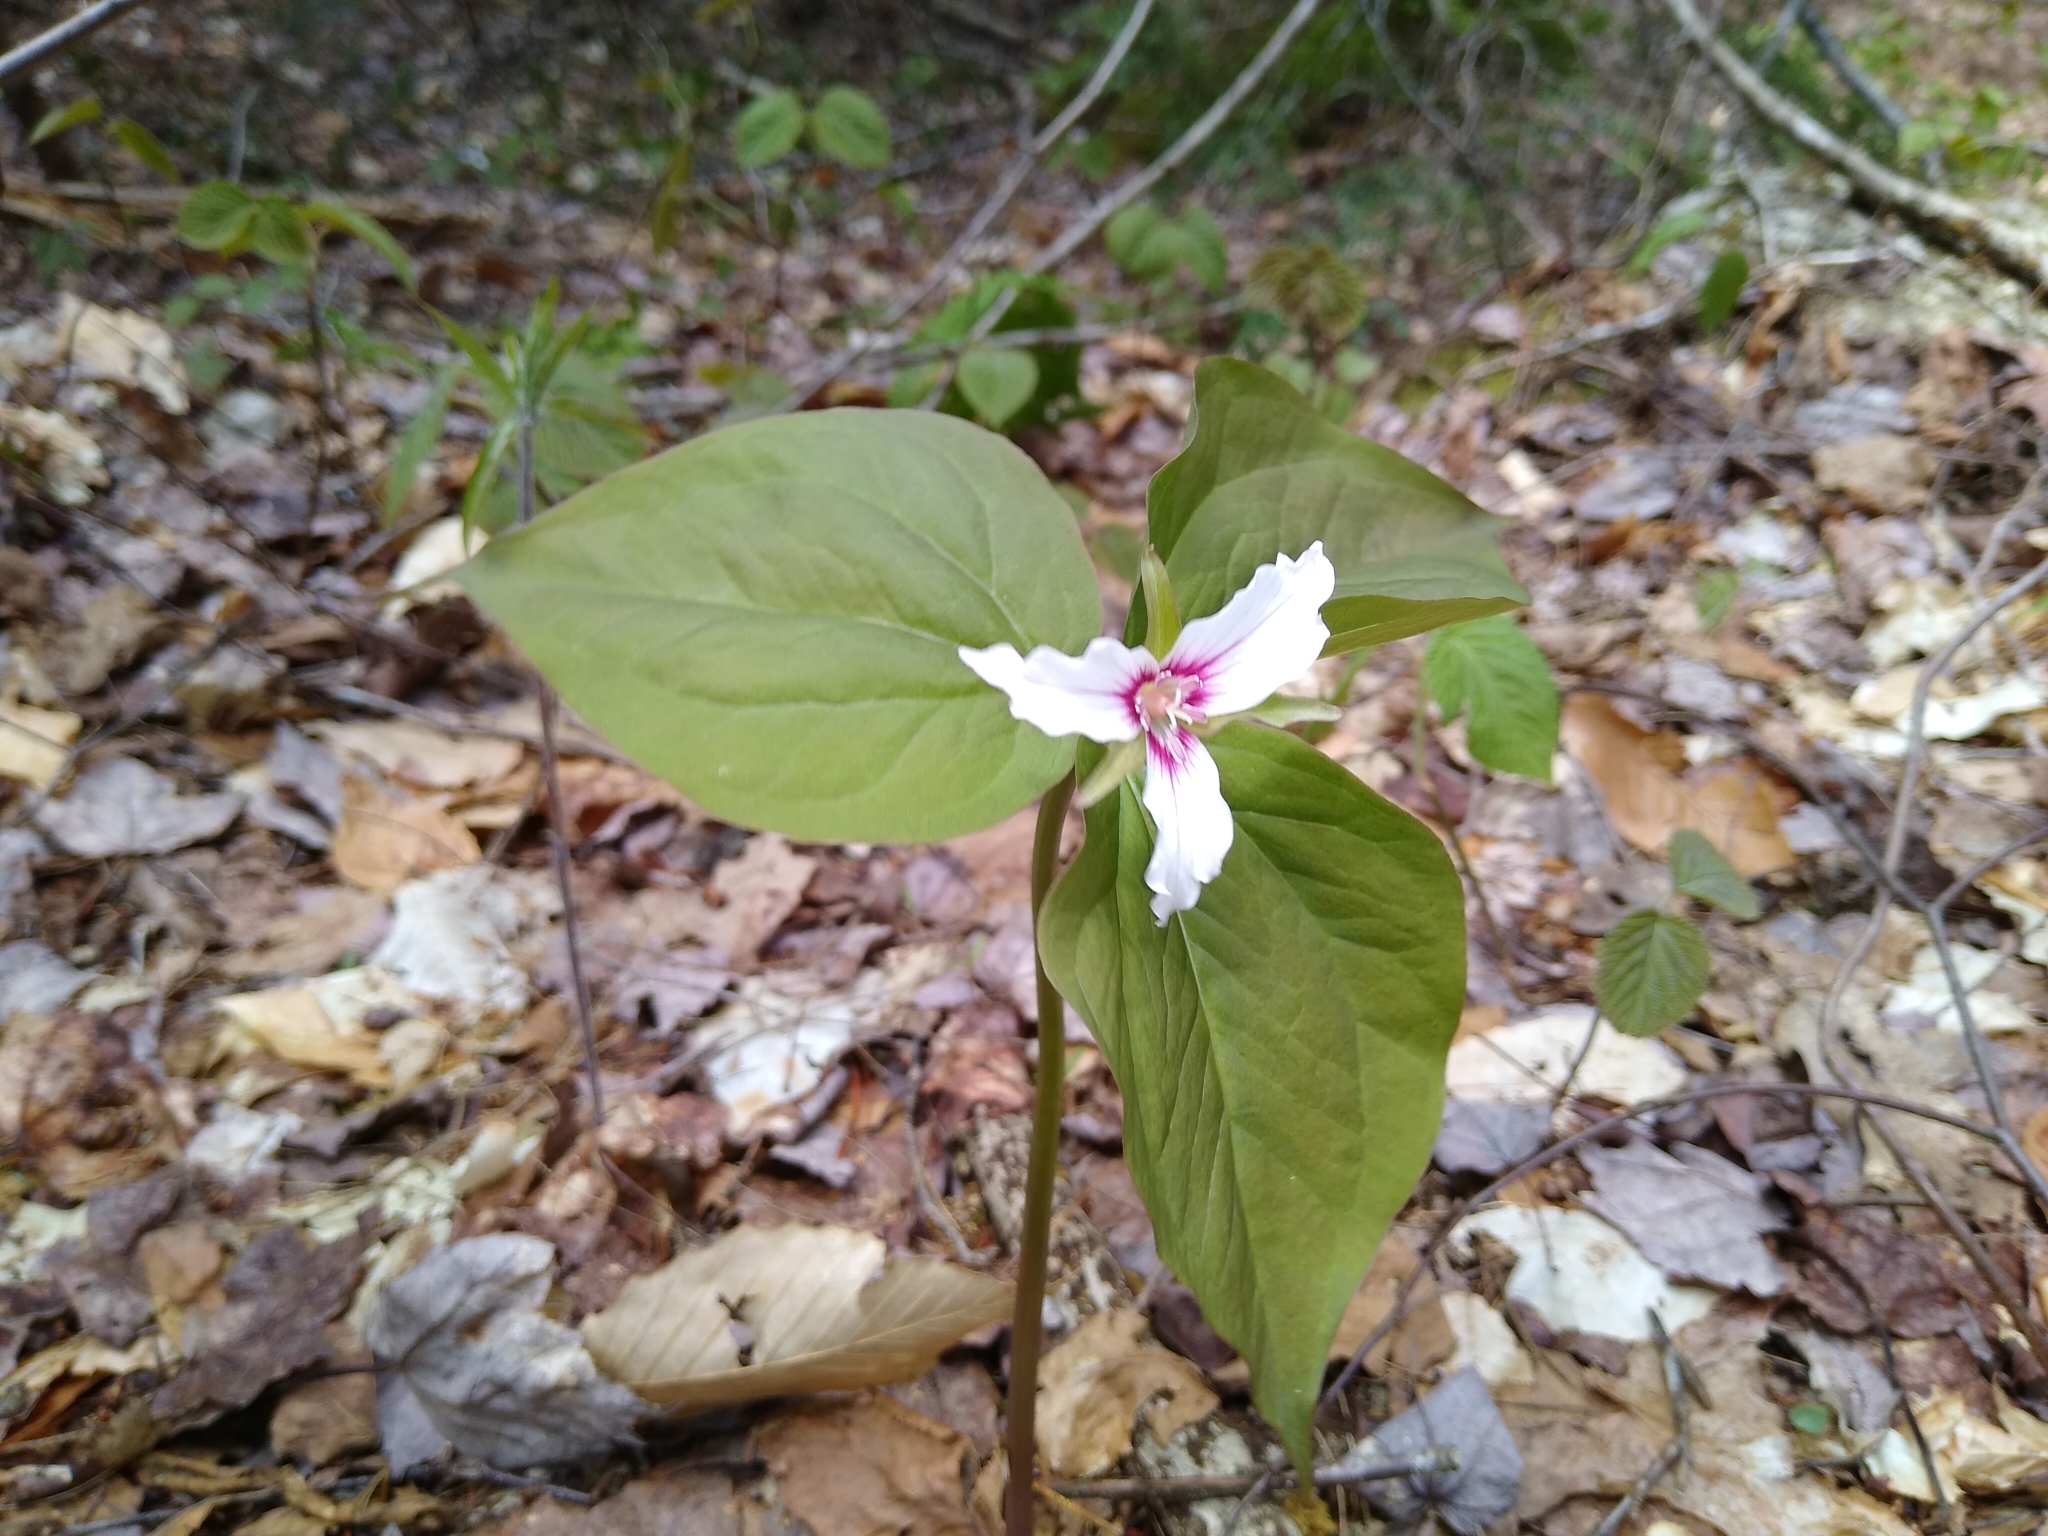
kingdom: Plantae
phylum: Tracheophyta
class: Liliopsida
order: Liliales
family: Melanthiaceae
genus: Trillium
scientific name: Trillium undulatum
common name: Paint trillium
